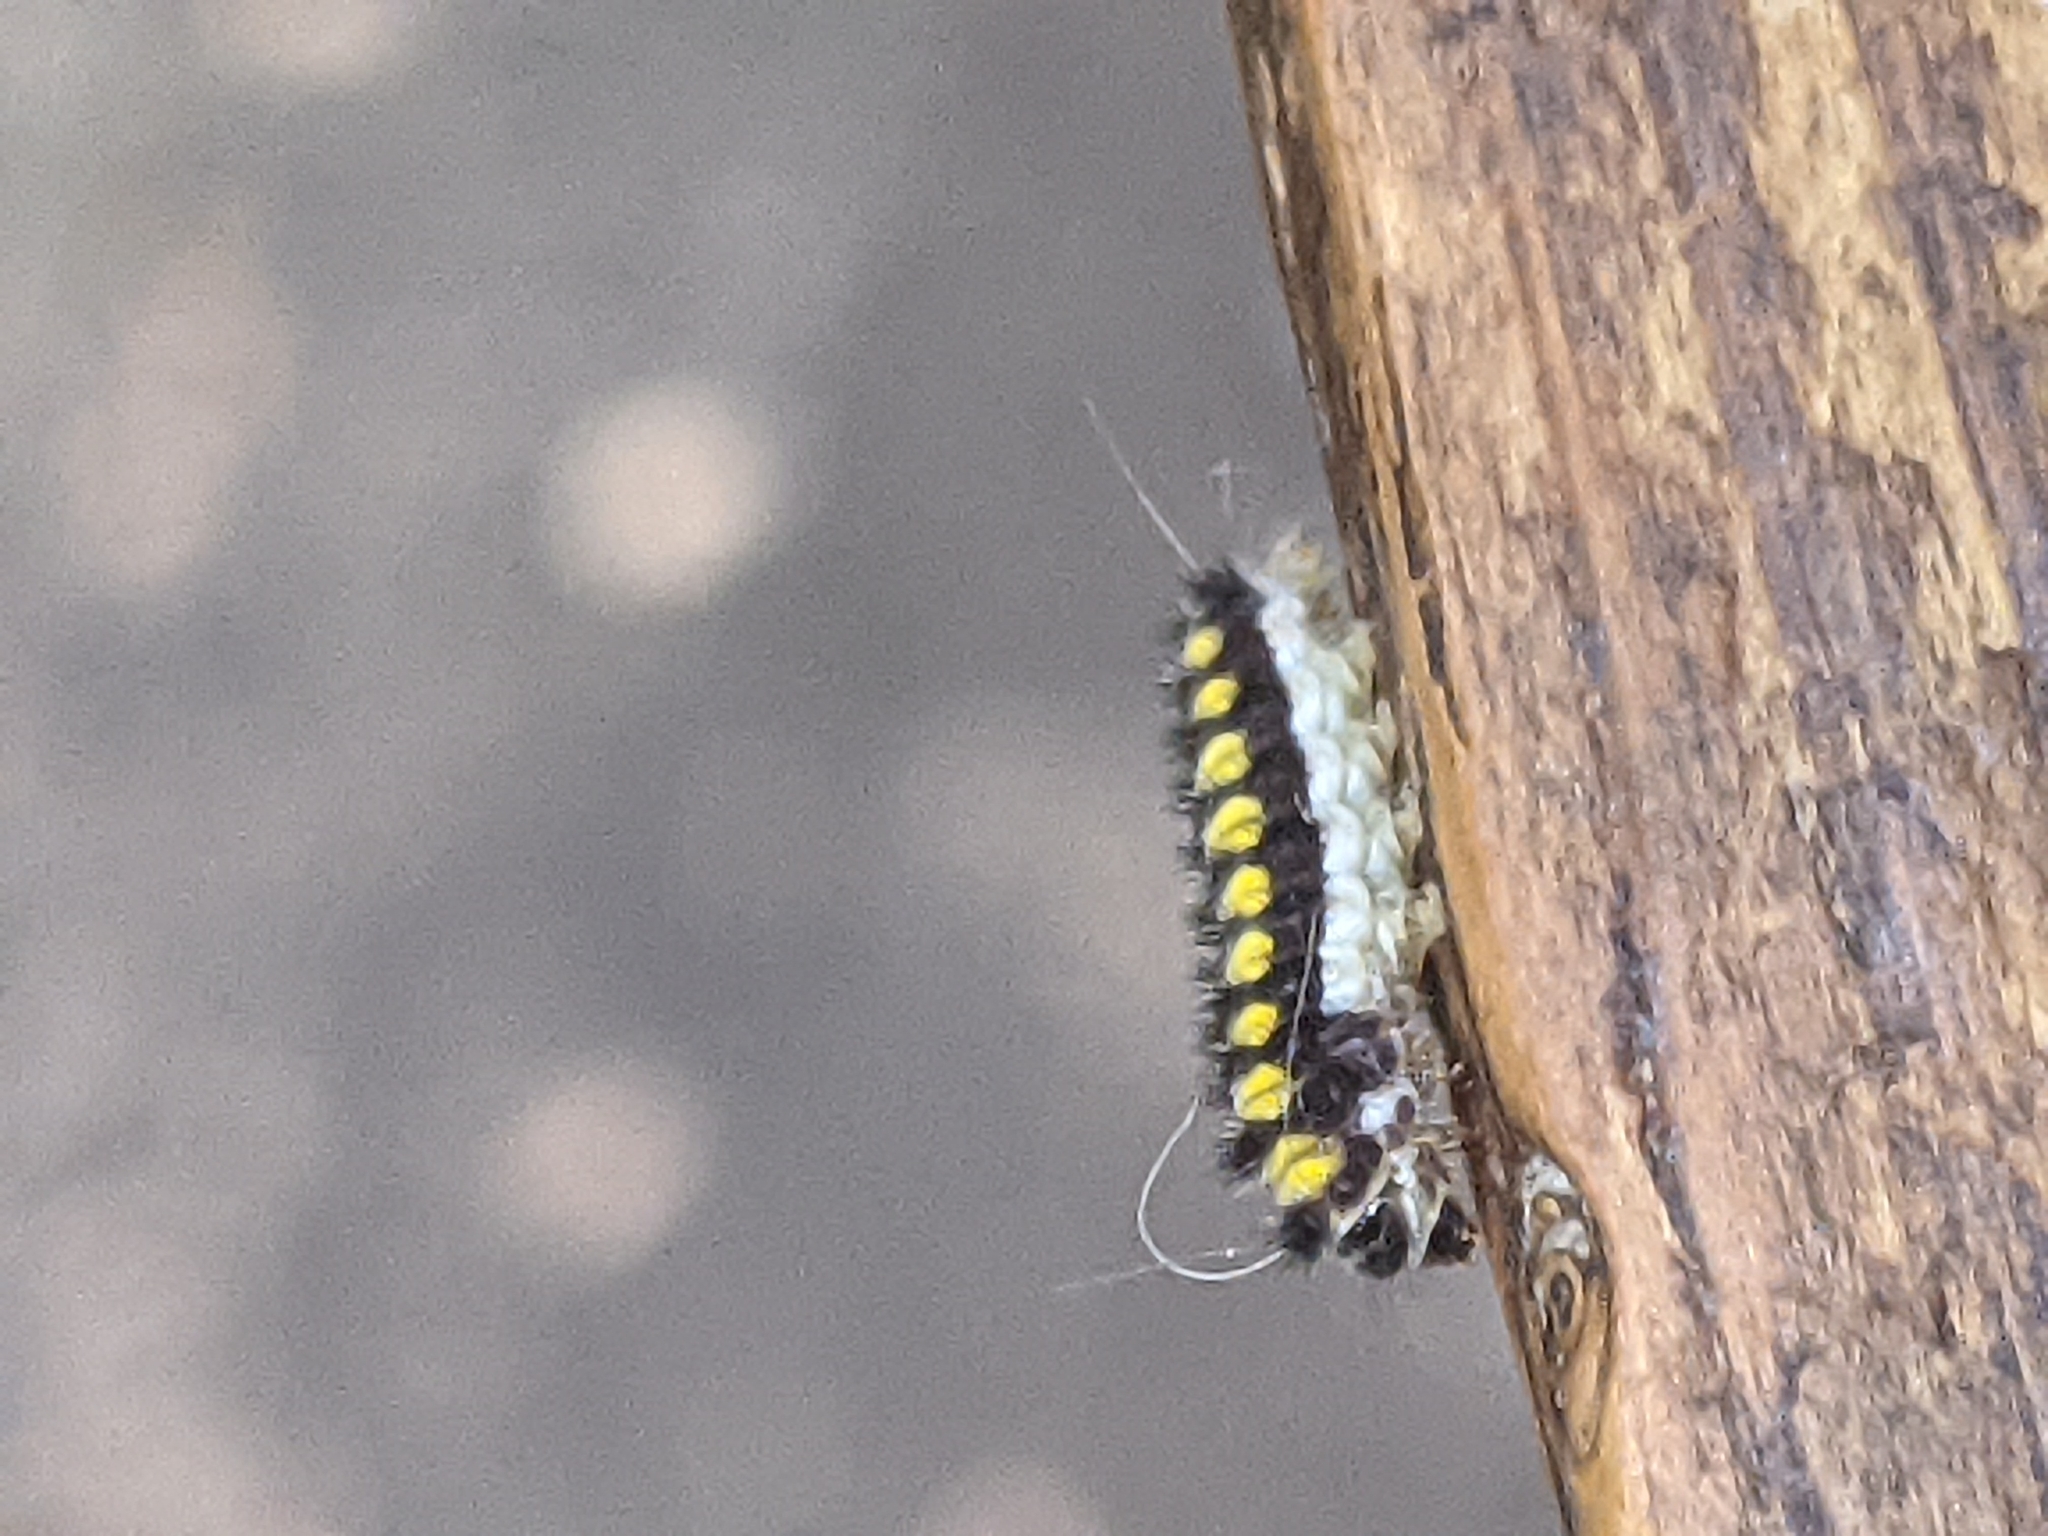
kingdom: Animalia
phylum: Arthropoda
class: Insecta
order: Lepidoptera
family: Zygaenidae
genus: Harrisina
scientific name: Harrisina americana
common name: Grapeleaf skeletonizer moth
